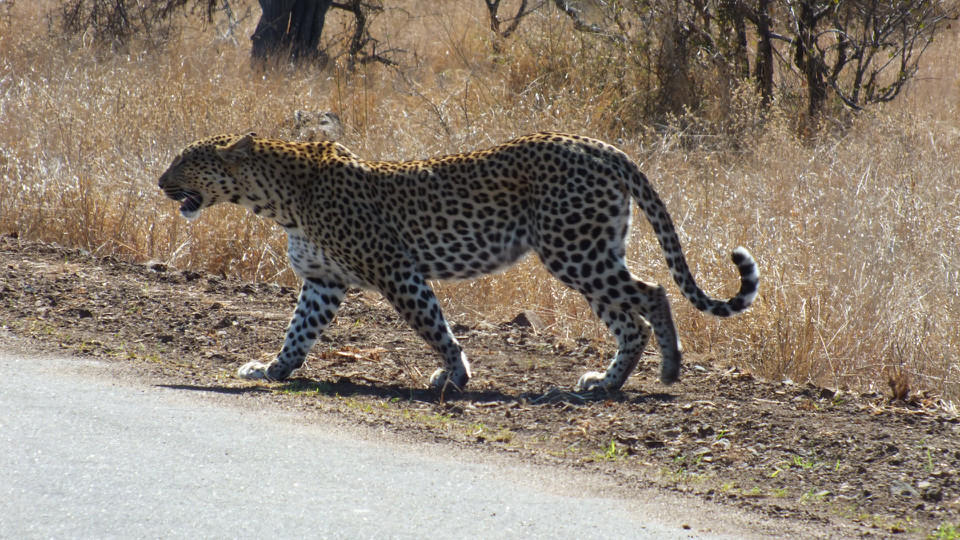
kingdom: Animalia
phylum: Chordata
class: Mammalia
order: Carnivora
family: Felidae
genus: Panthera
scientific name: Panthera pardus
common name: Leopard
